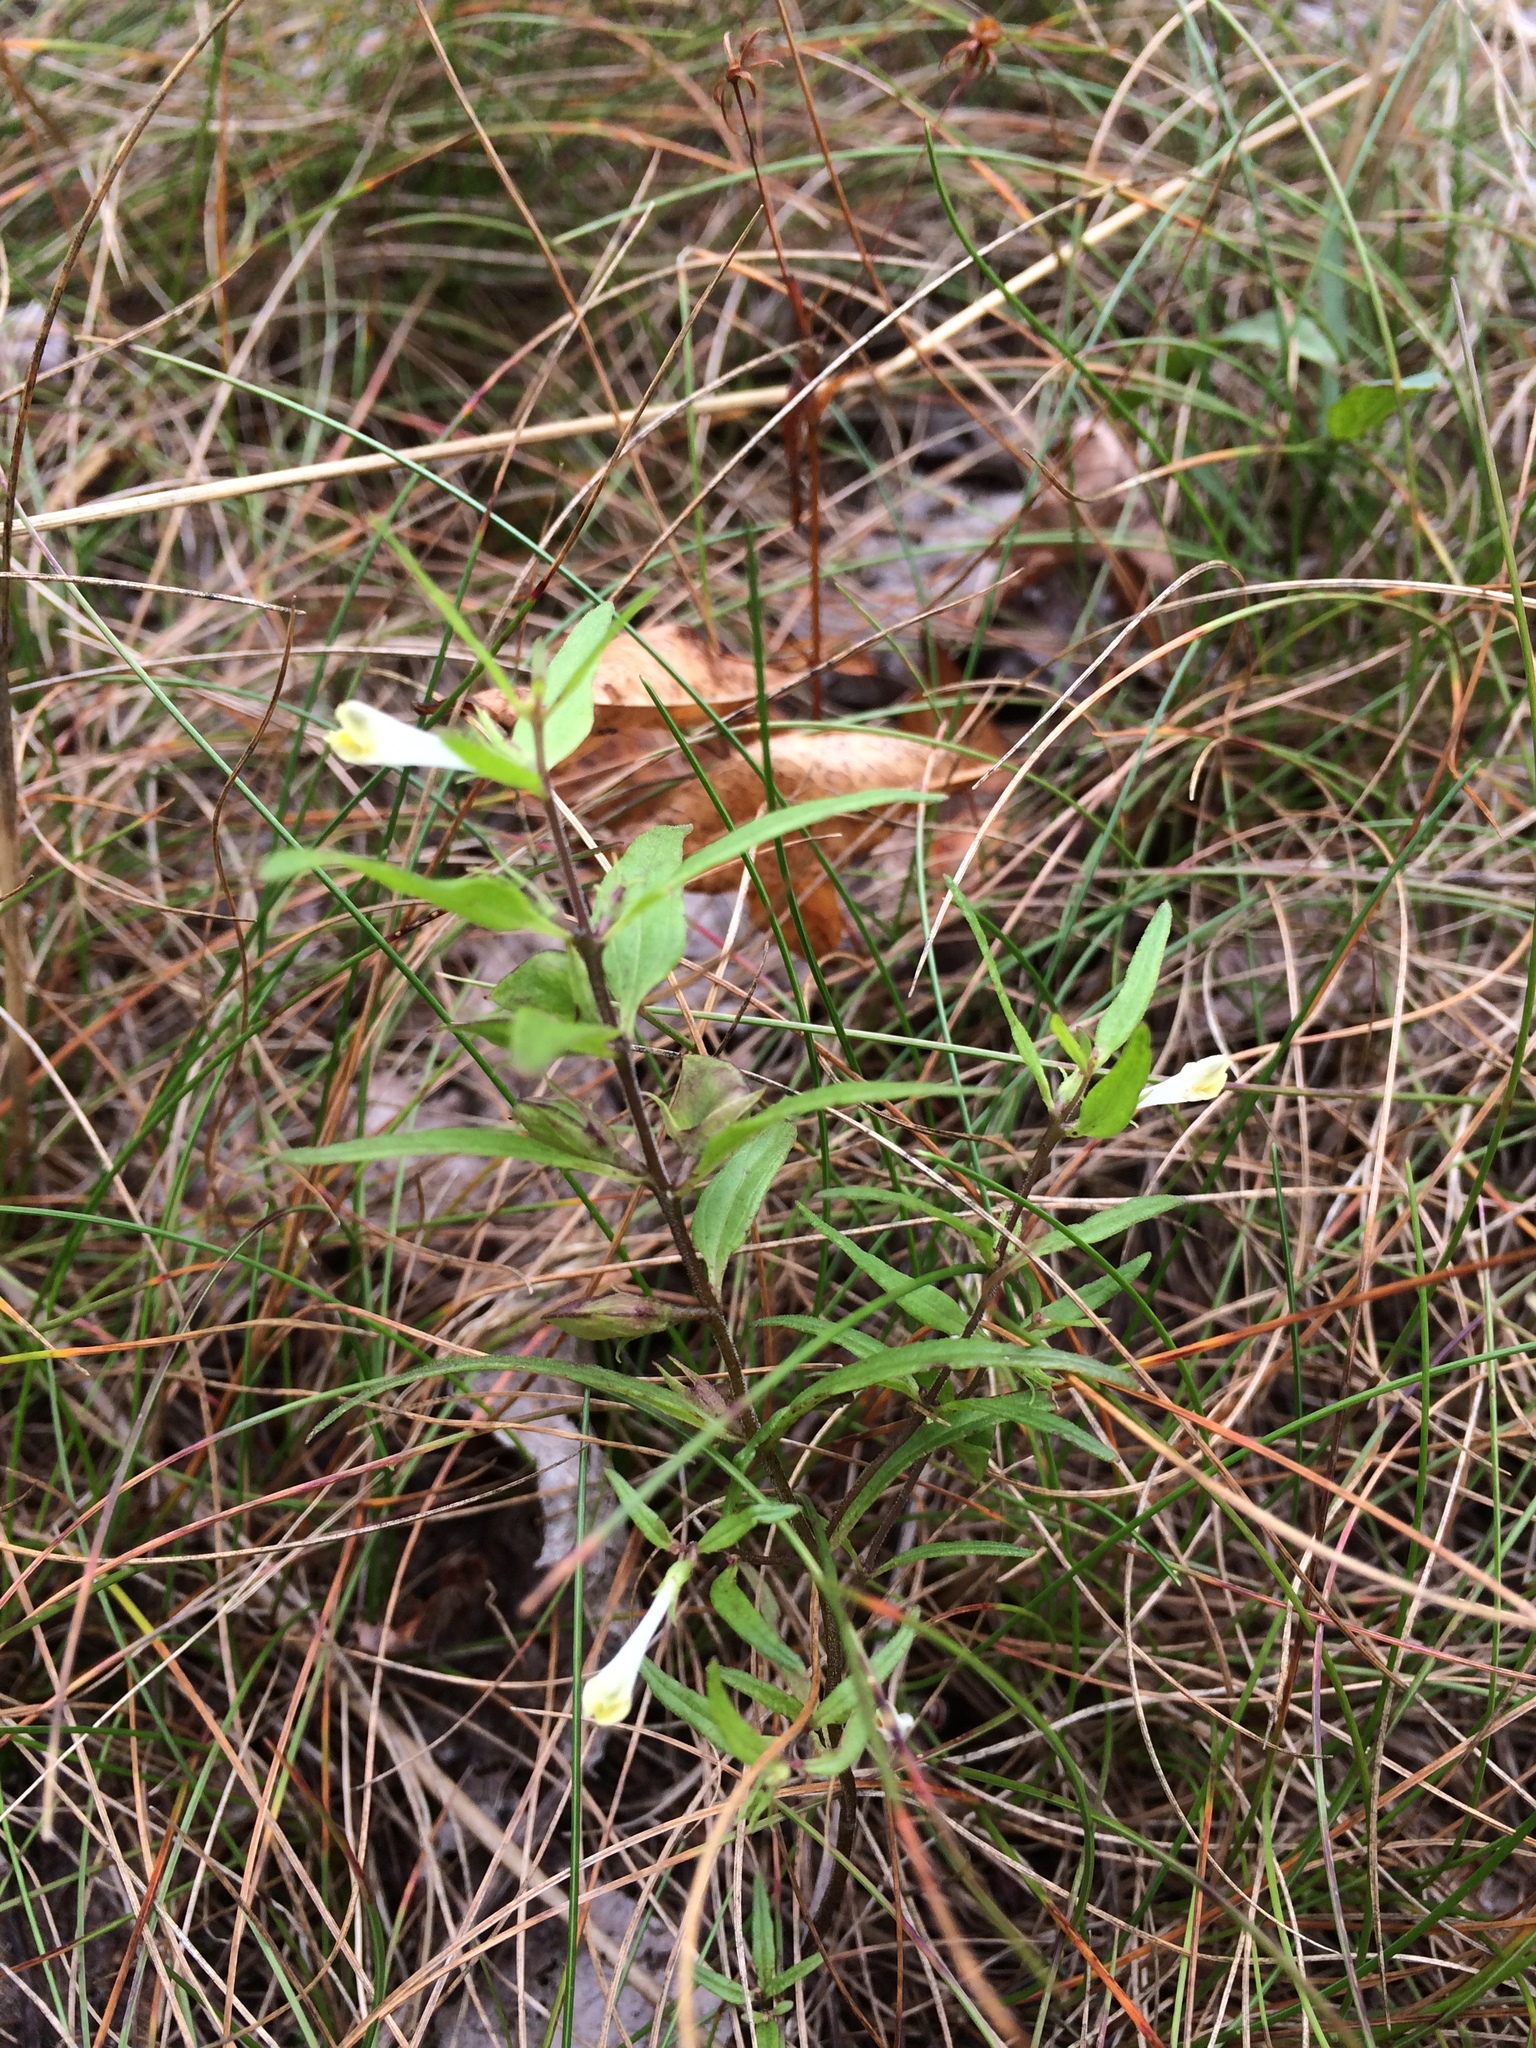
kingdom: Plantae
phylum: Tracheophyta
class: Magnoliopsida
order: Lamiales
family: Orobanchaceae
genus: Melampyrum
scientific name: Melampyrum lineare
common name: American cow-wheat
